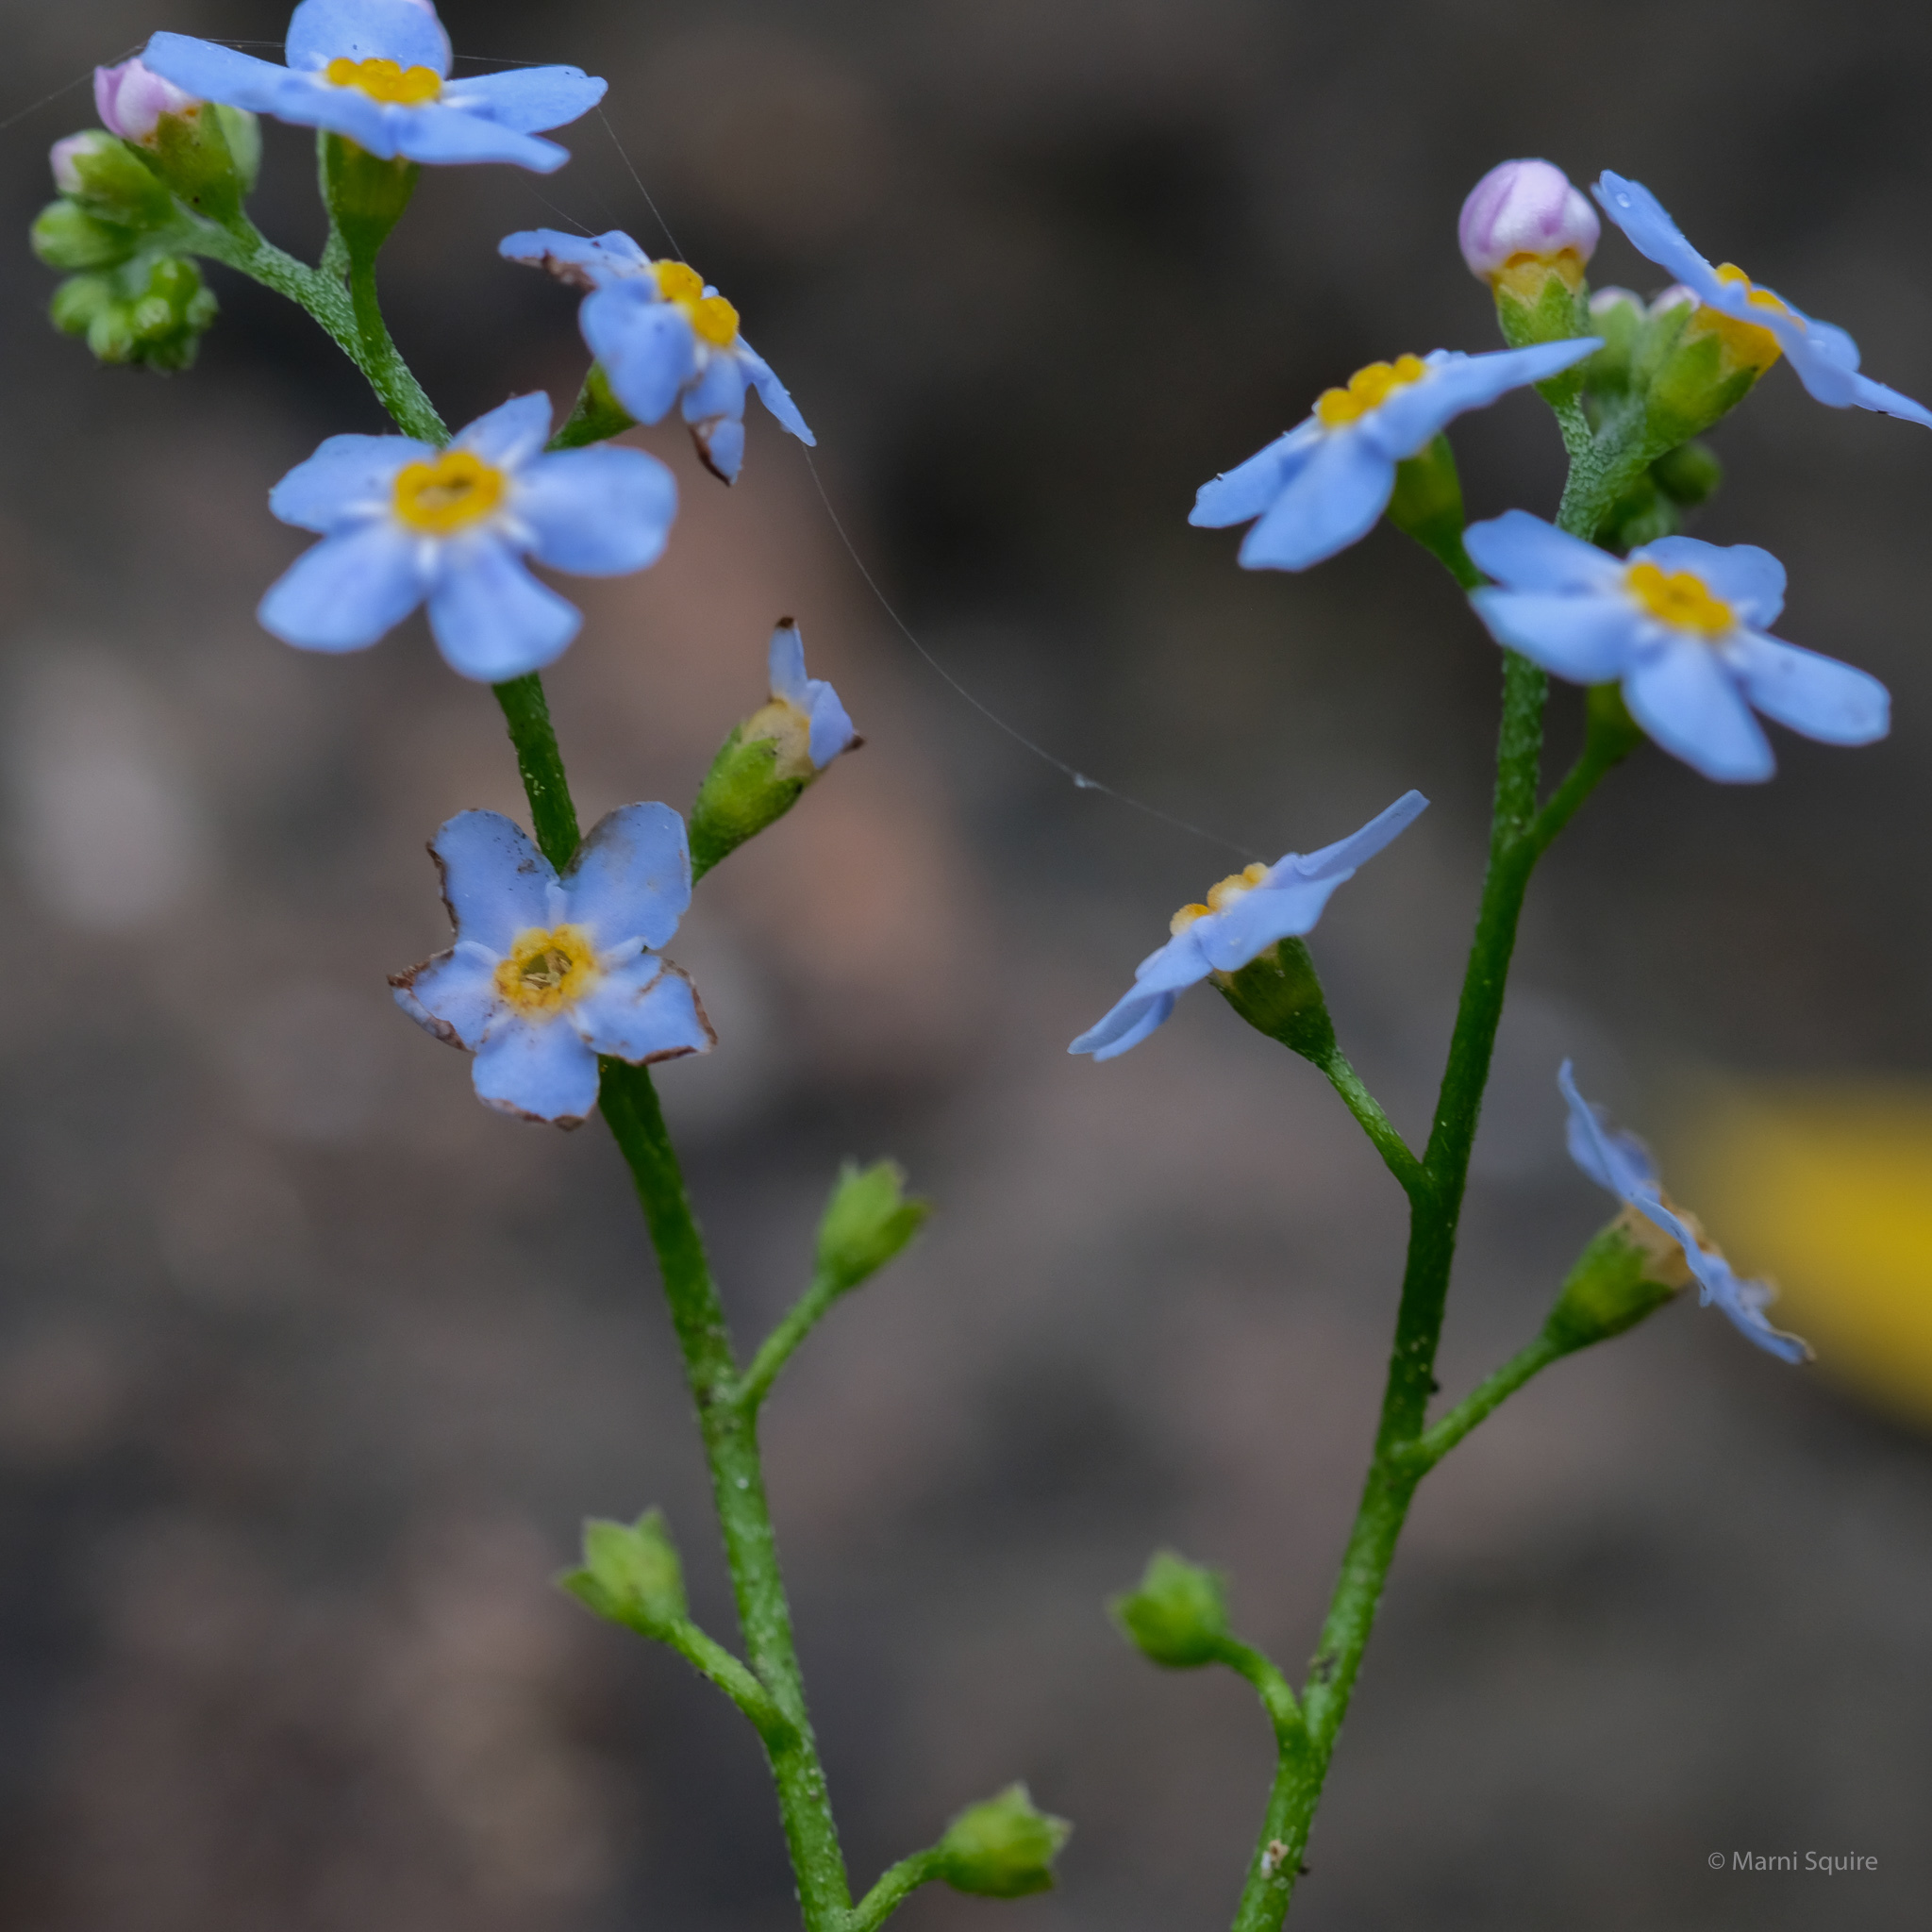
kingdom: Plantae
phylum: Tracheophyta
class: Magnoliopsida
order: Boraginales
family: Boraginaceae
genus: Myosotis
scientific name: Myosotis scorpioides
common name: Water forget-me-not
